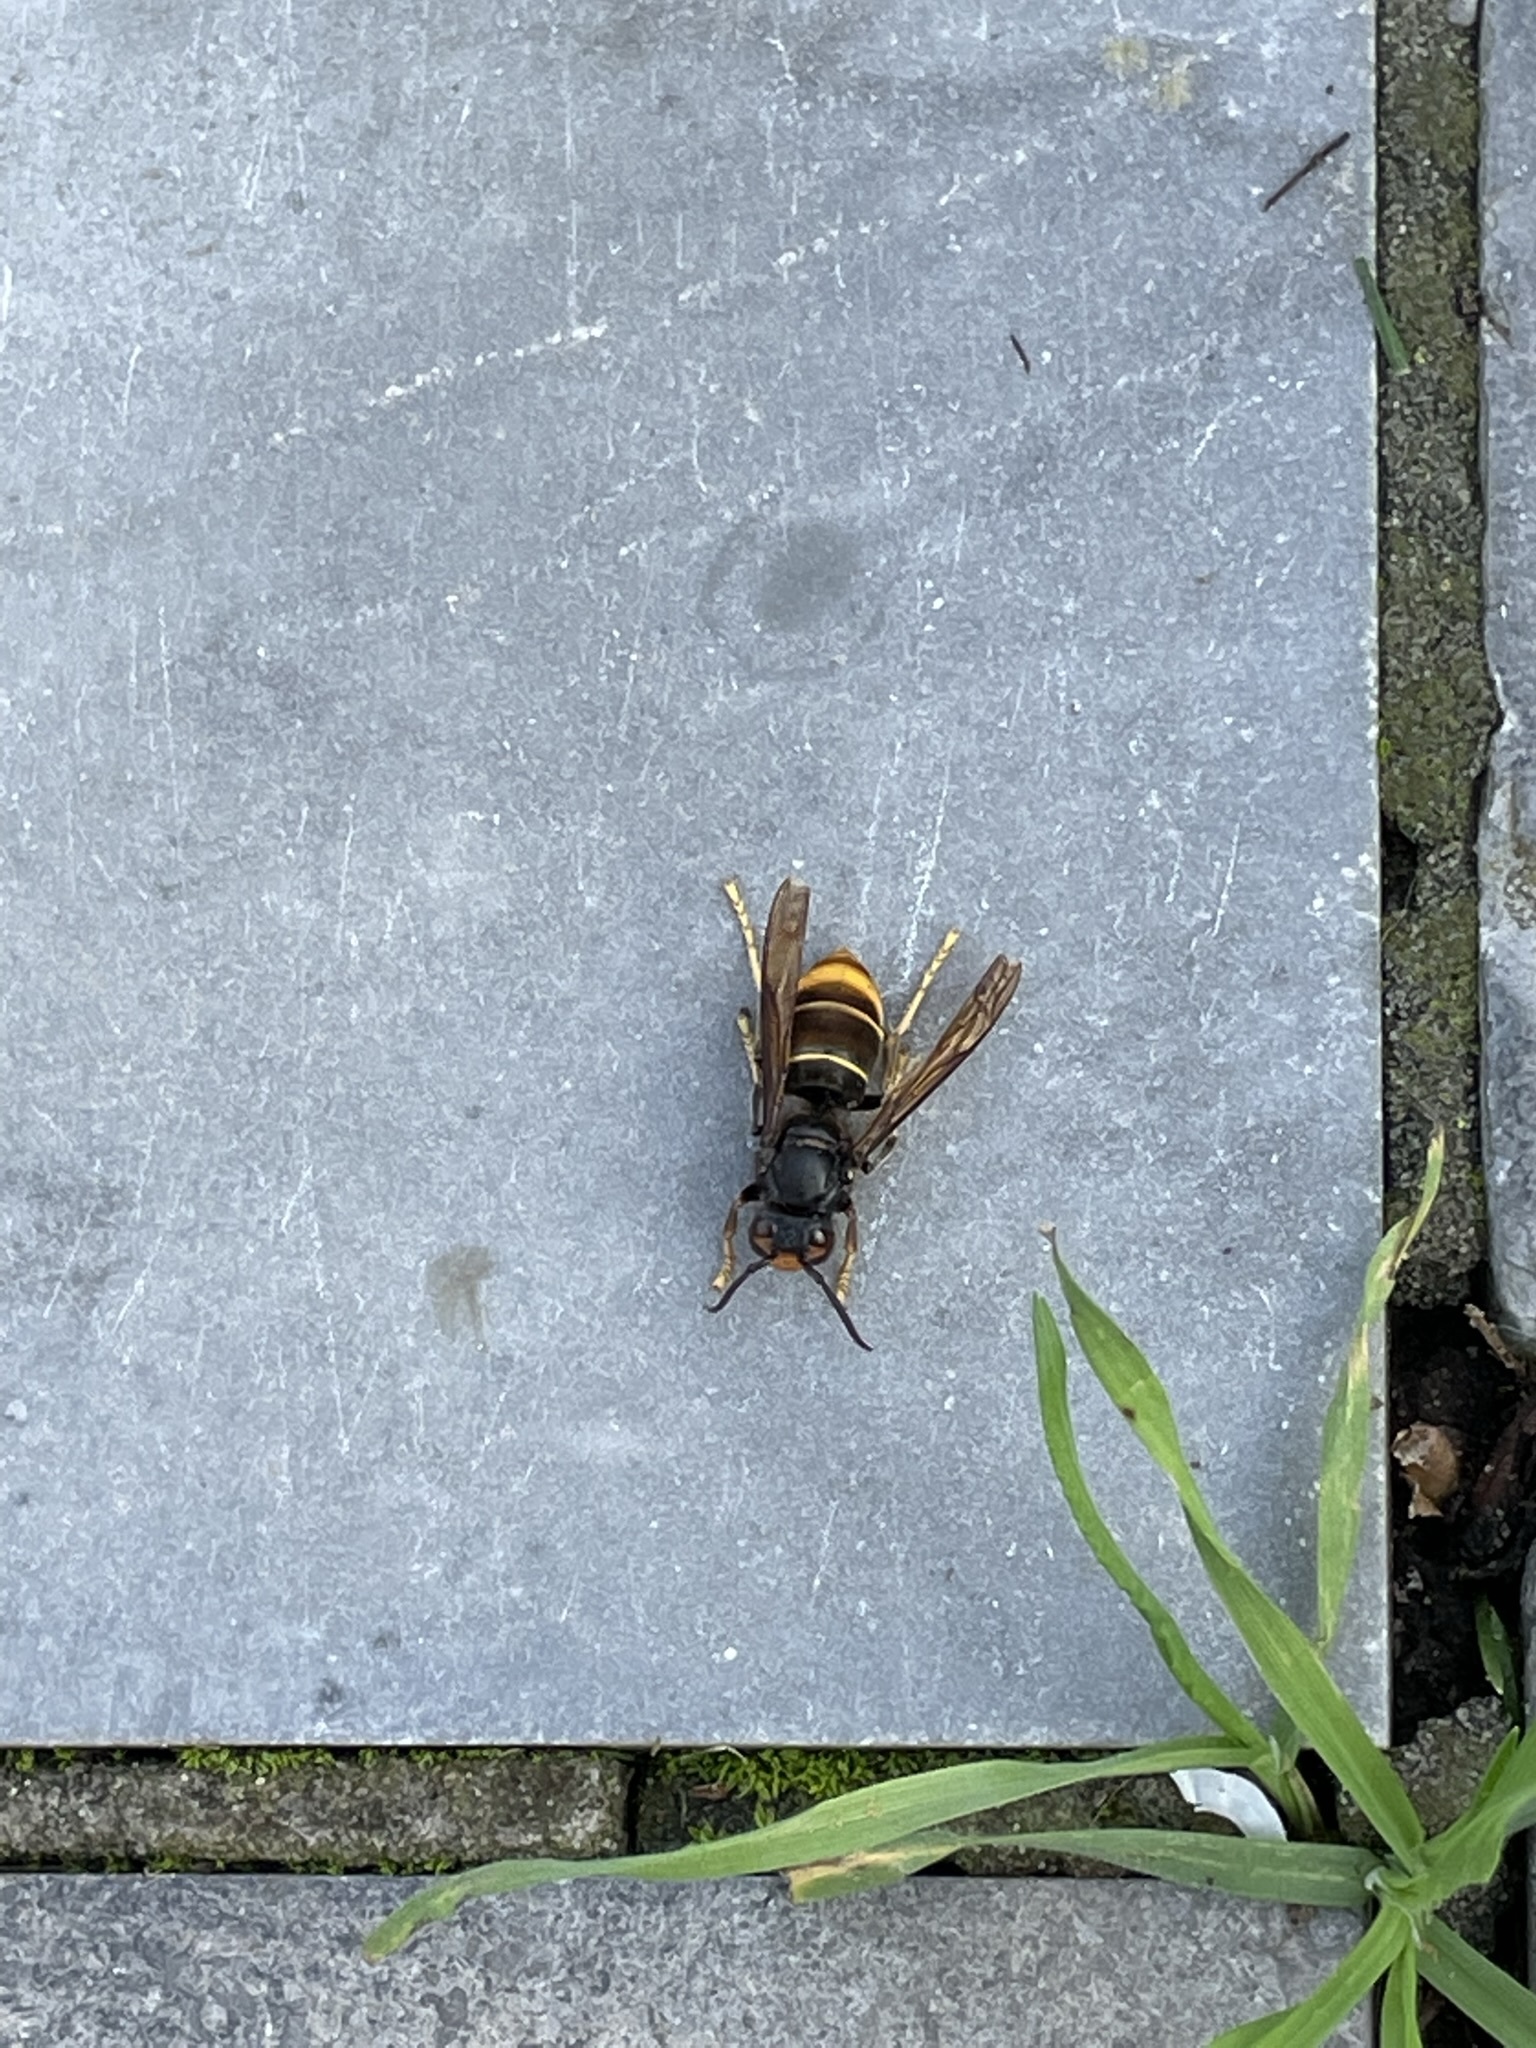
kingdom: Animalia
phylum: Arthropoda
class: Insecta
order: Hymenoptera
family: Vespidae
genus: Vespa
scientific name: Vespa velutina
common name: Asian hornet
